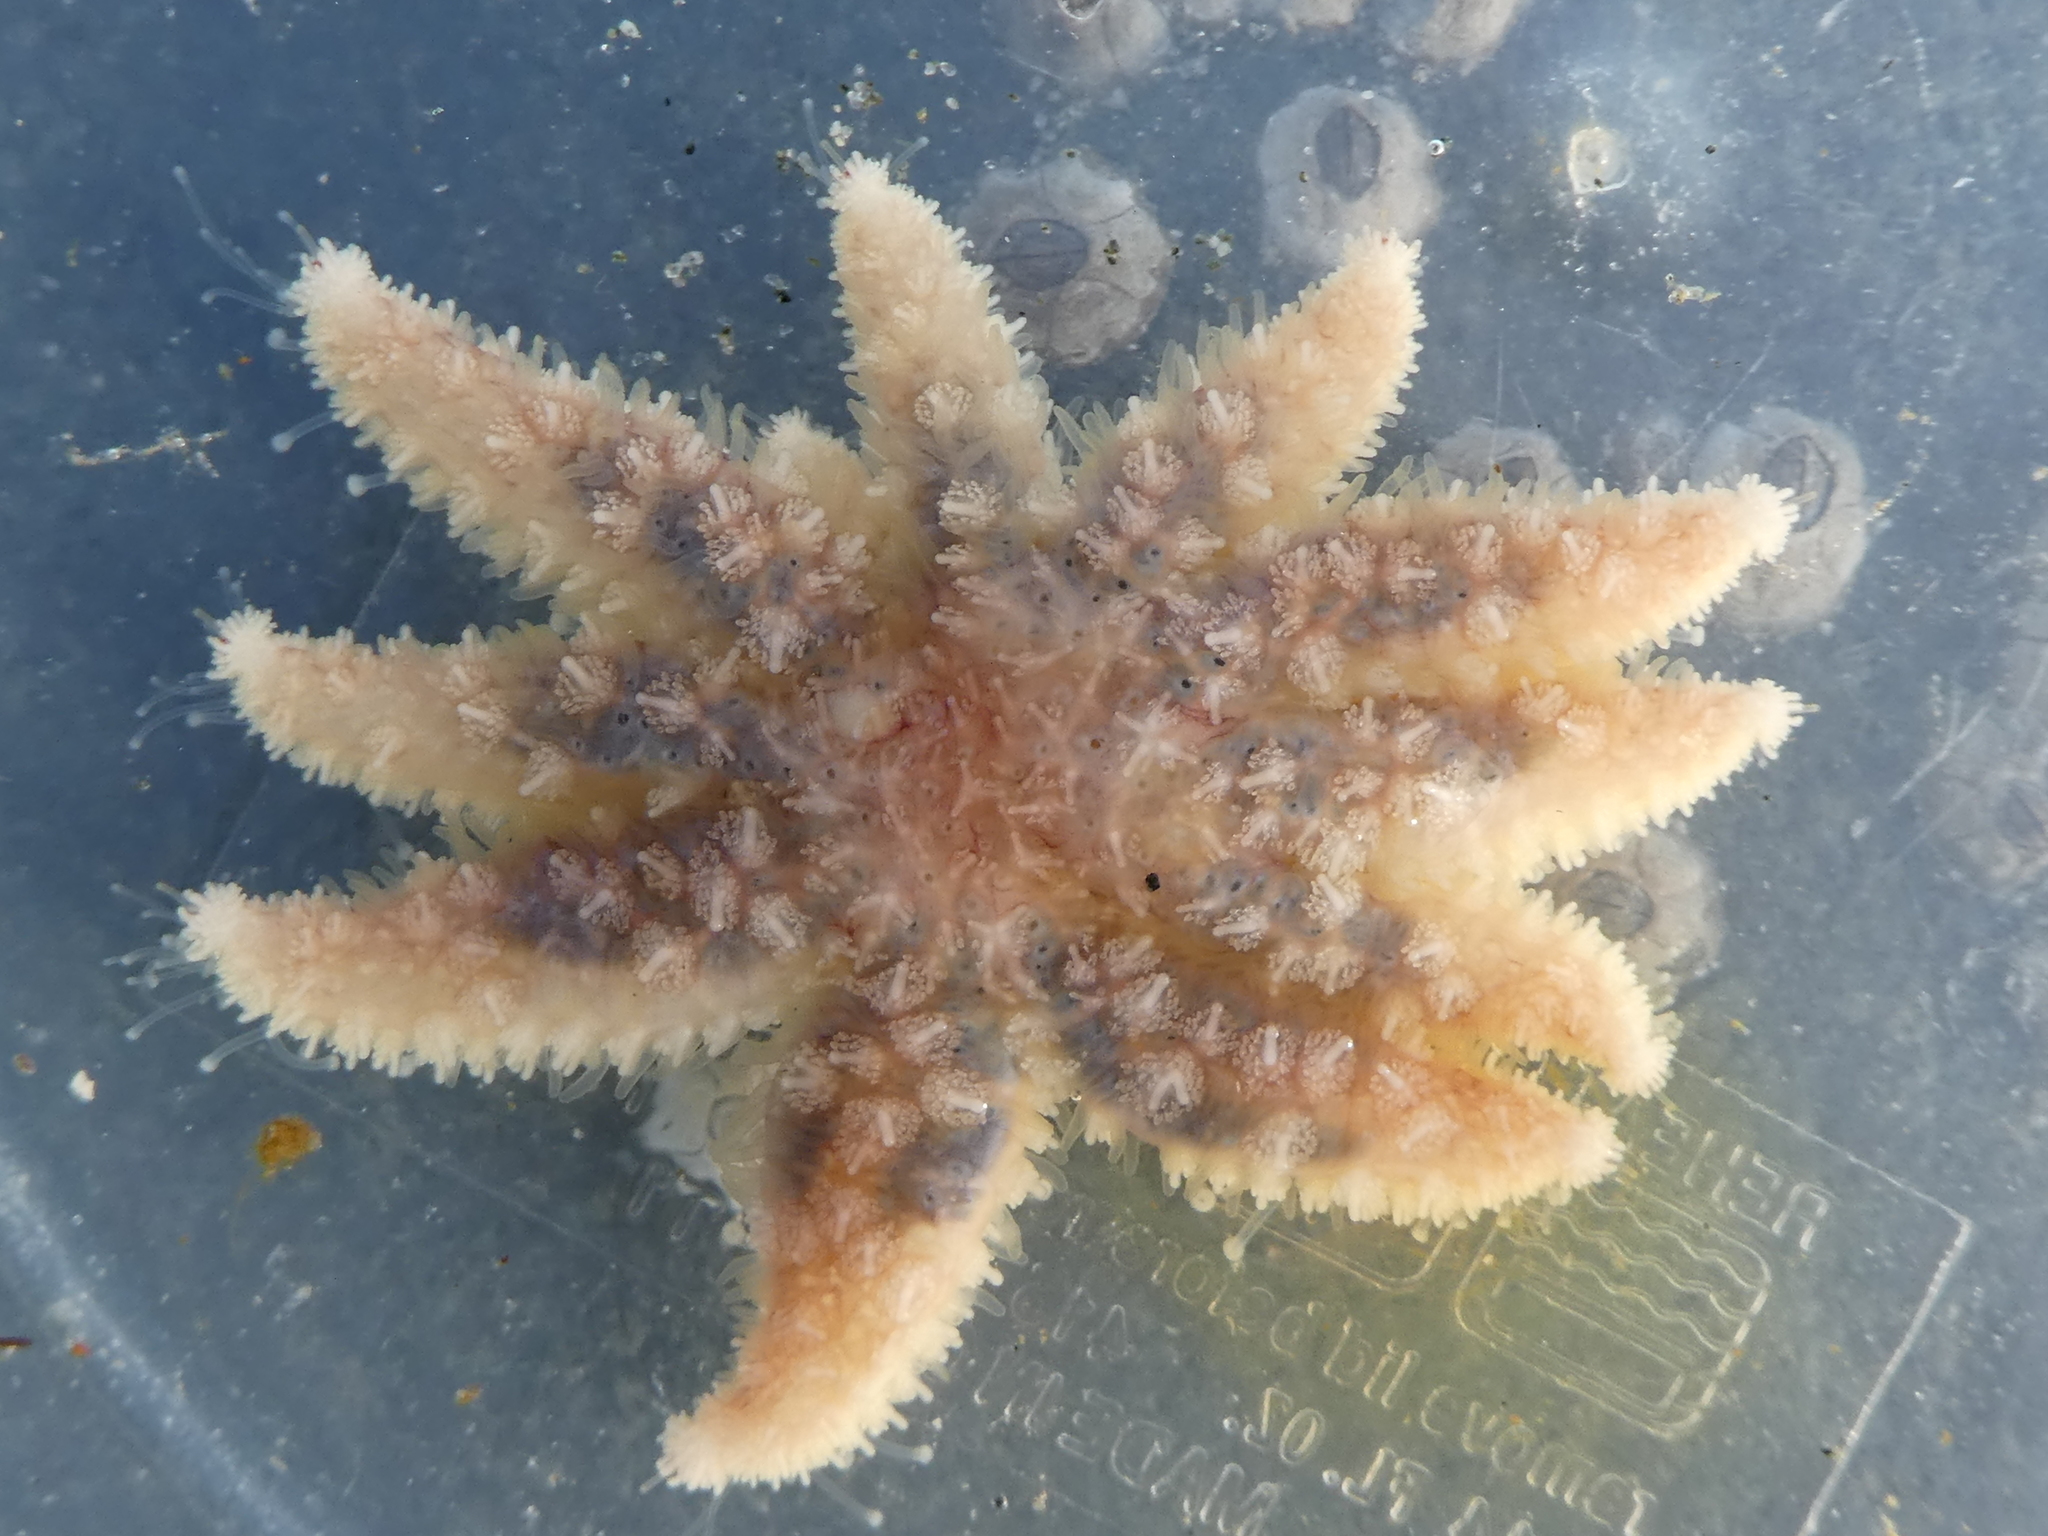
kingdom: Animalia
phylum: Echinodermata
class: Asteroidea
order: Forcipulatida
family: Asteriidae
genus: Pycnopodia
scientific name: Pycnopodia helianthoides
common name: Rag mop
